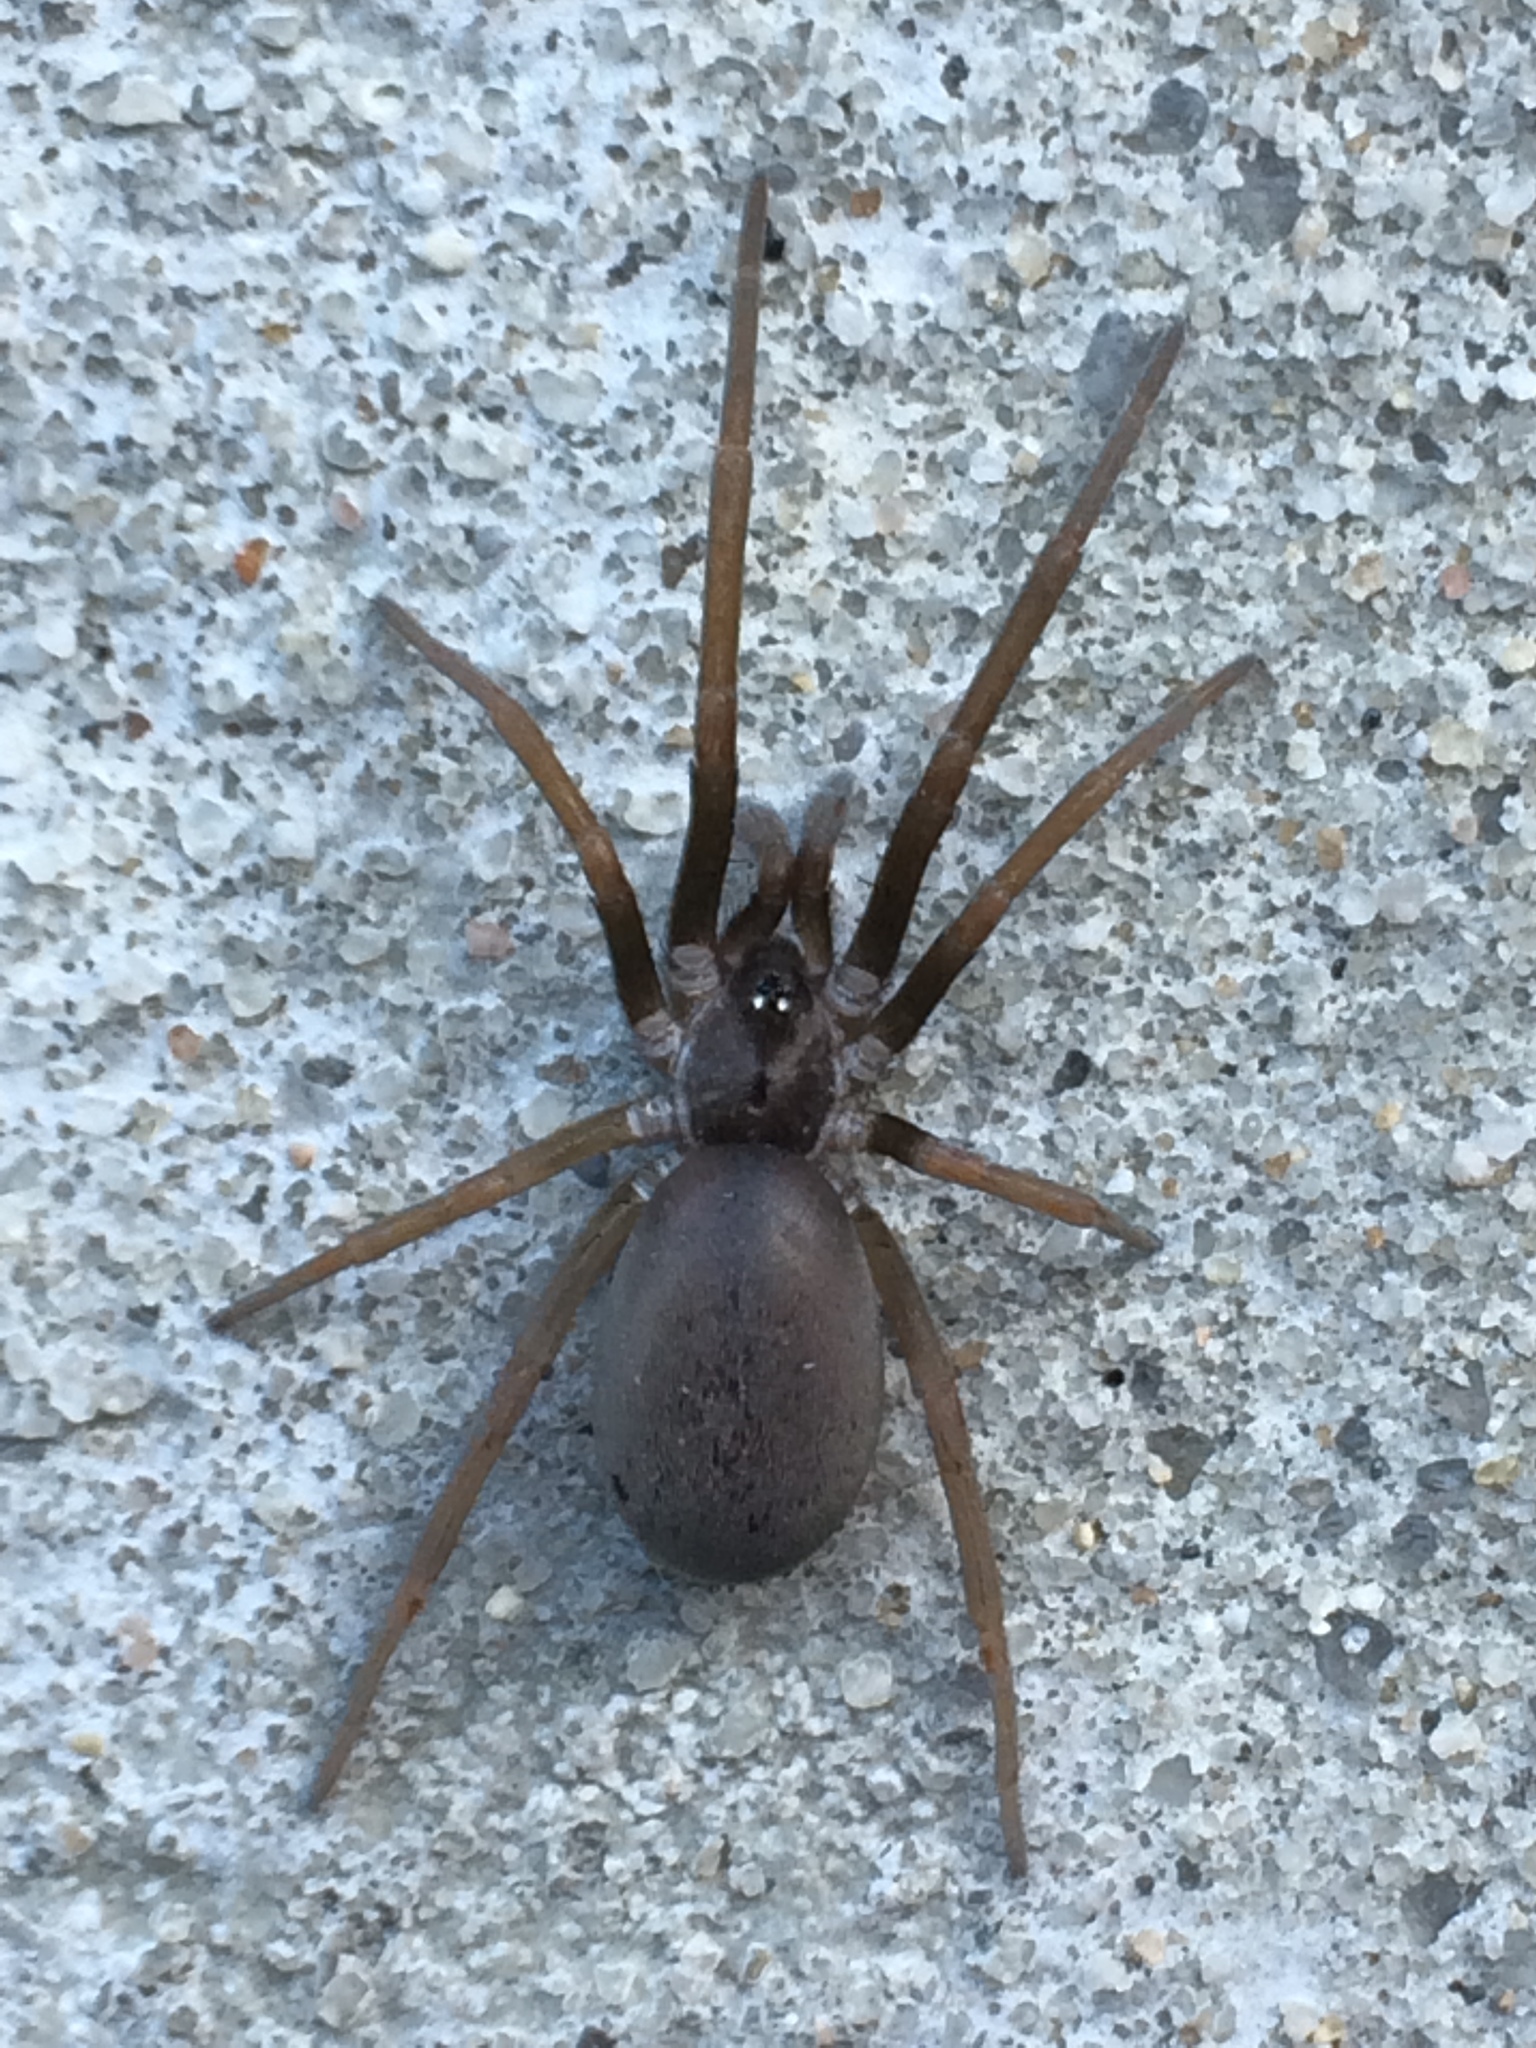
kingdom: Animalia
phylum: Arthropoda
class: Arachnida
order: Araneae
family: Filistatidae
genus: Kukulcania
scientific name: Kukulcania hibernalis
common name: Crevice weaver
